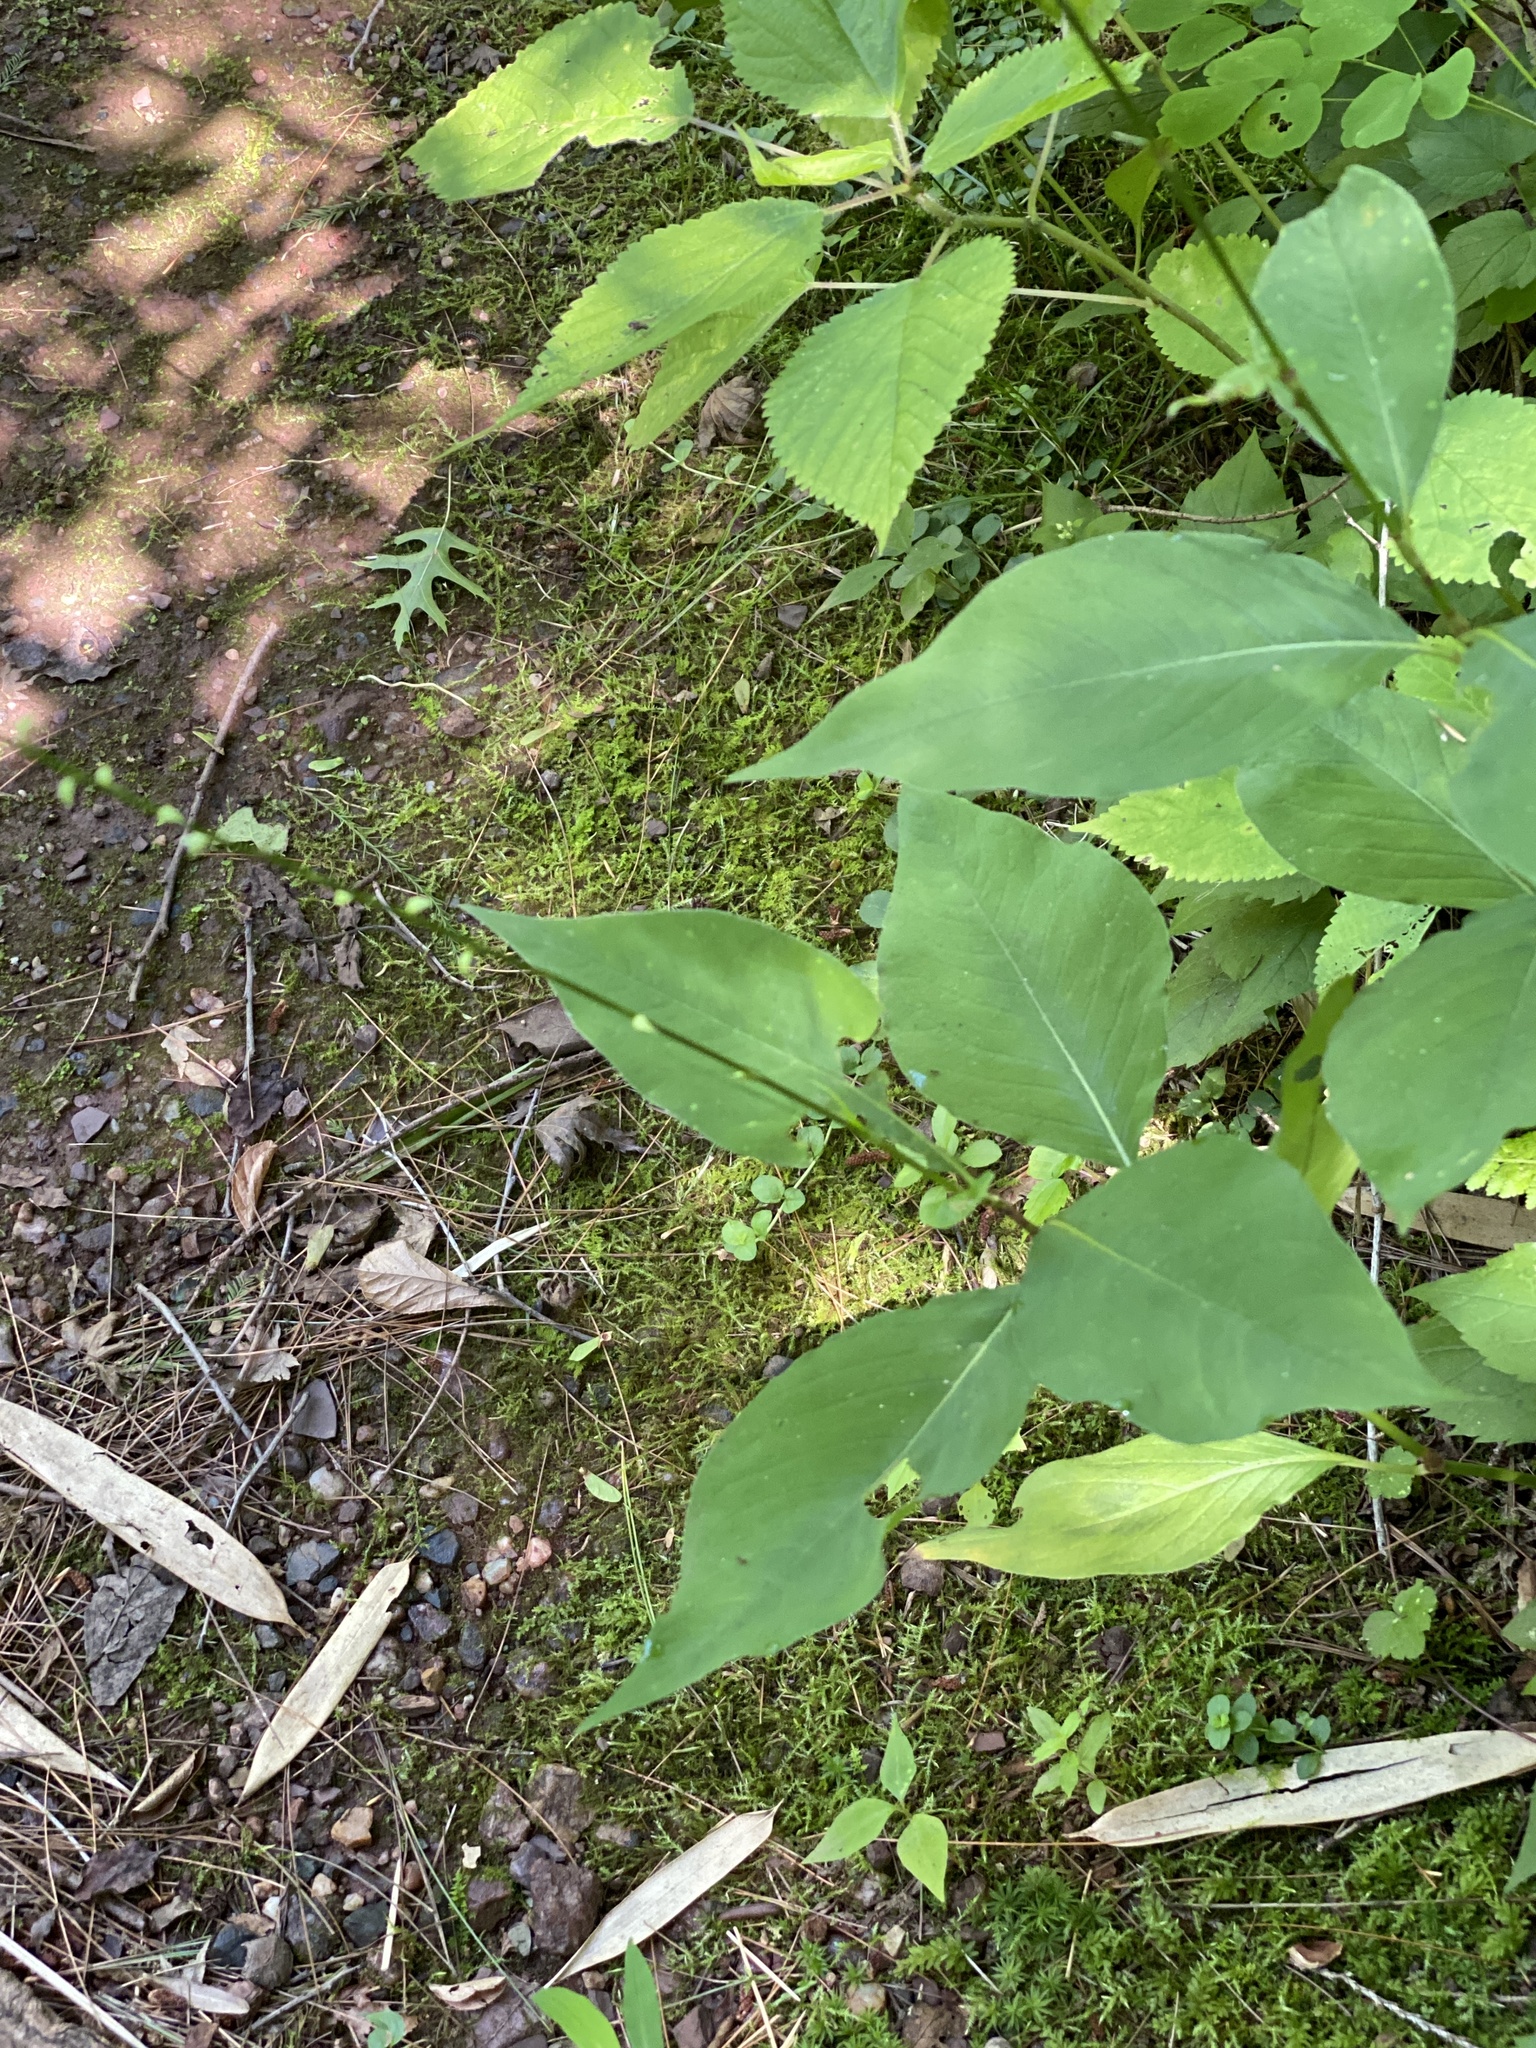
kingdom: Plantae
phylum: Tracheophyta
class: Magnoliopsida
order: Caryophyllales
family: Polygonaceae
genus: Persicaria
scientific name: Persicaria virginiana
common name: Jumpseed
